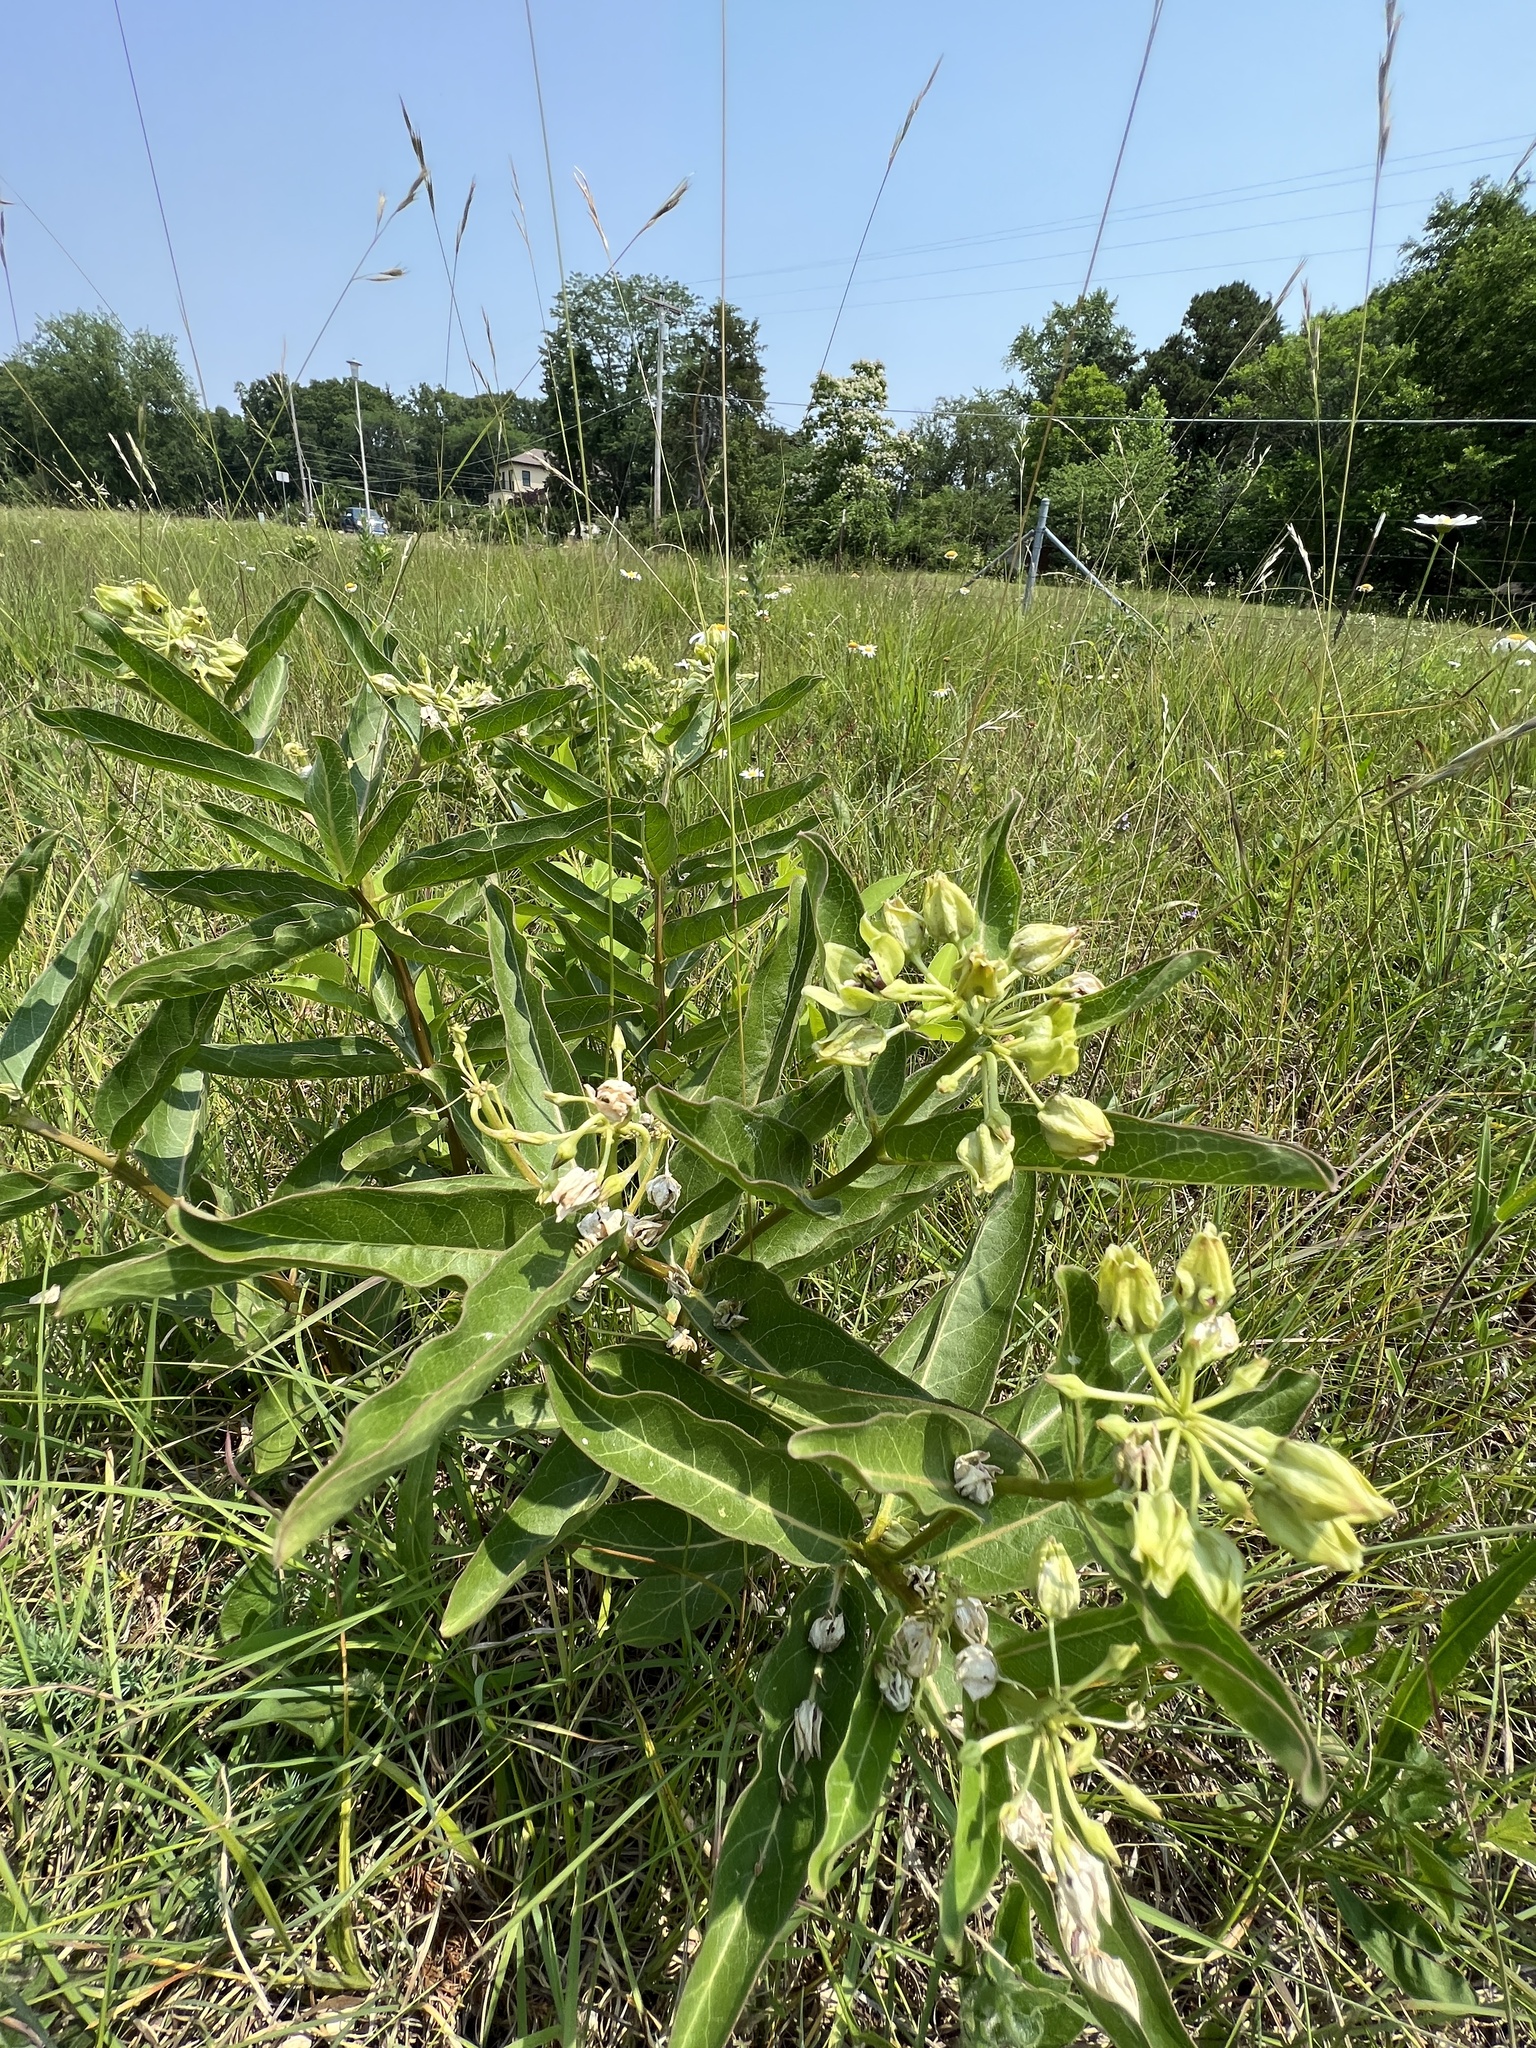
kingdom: Plantae
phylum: Tracheophyta
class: Magnoliopsida
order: Gentianales
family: Apocynaceae
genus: Asclepias
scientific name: Asclepias viridis
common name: Antelope-horns
